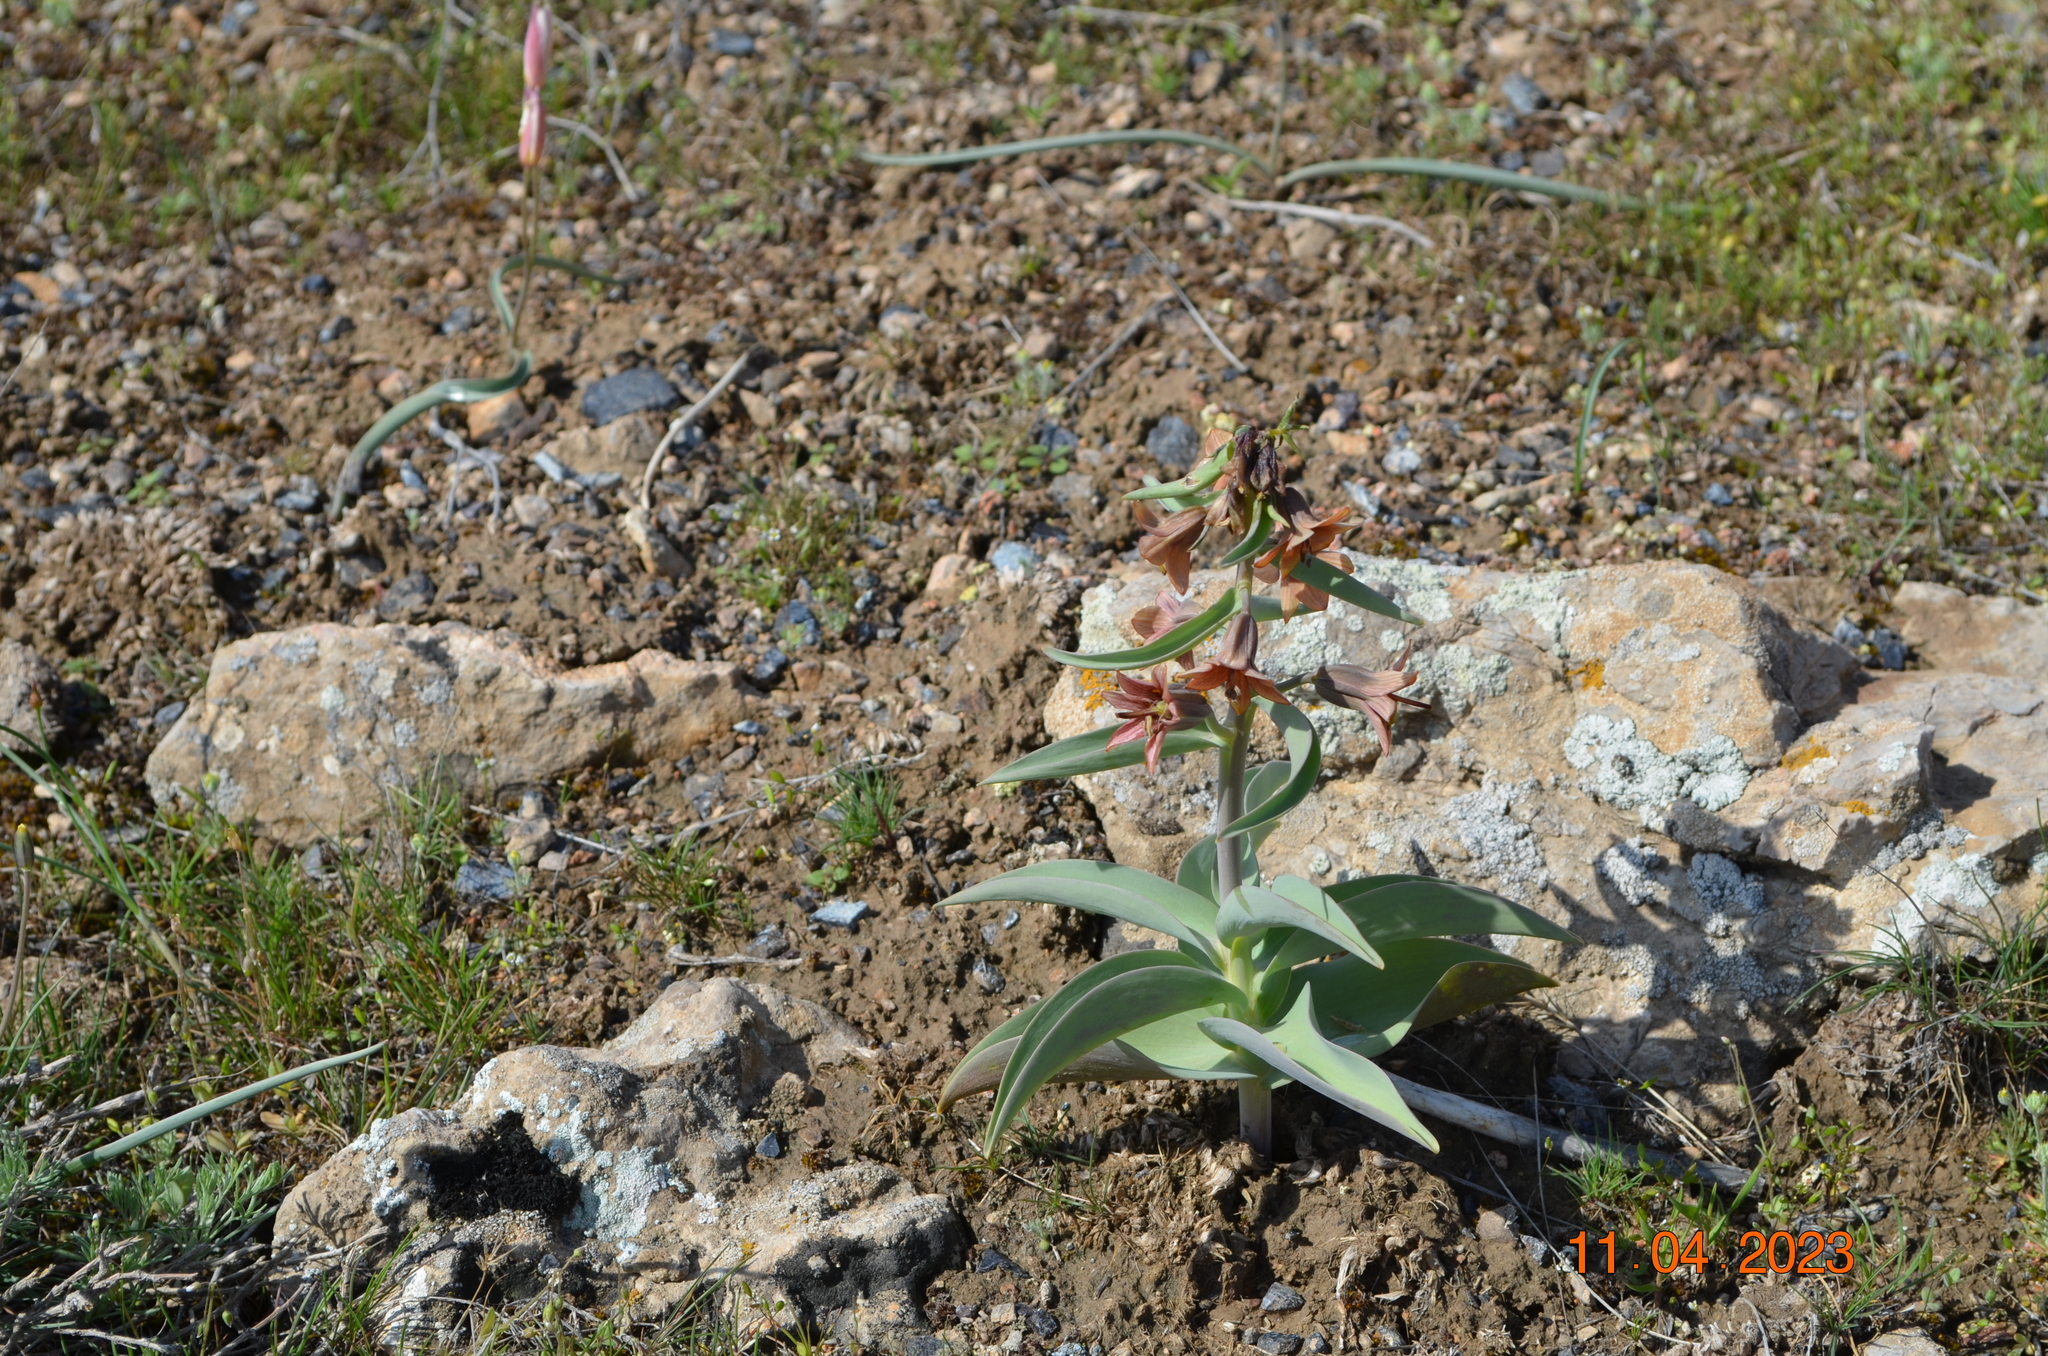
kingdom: Plantae
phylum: Tracheophyta
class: Liliopsida
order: Liliales
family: Liliaceae
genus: Fritillaria
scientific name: Fritillaria sewerzowii
